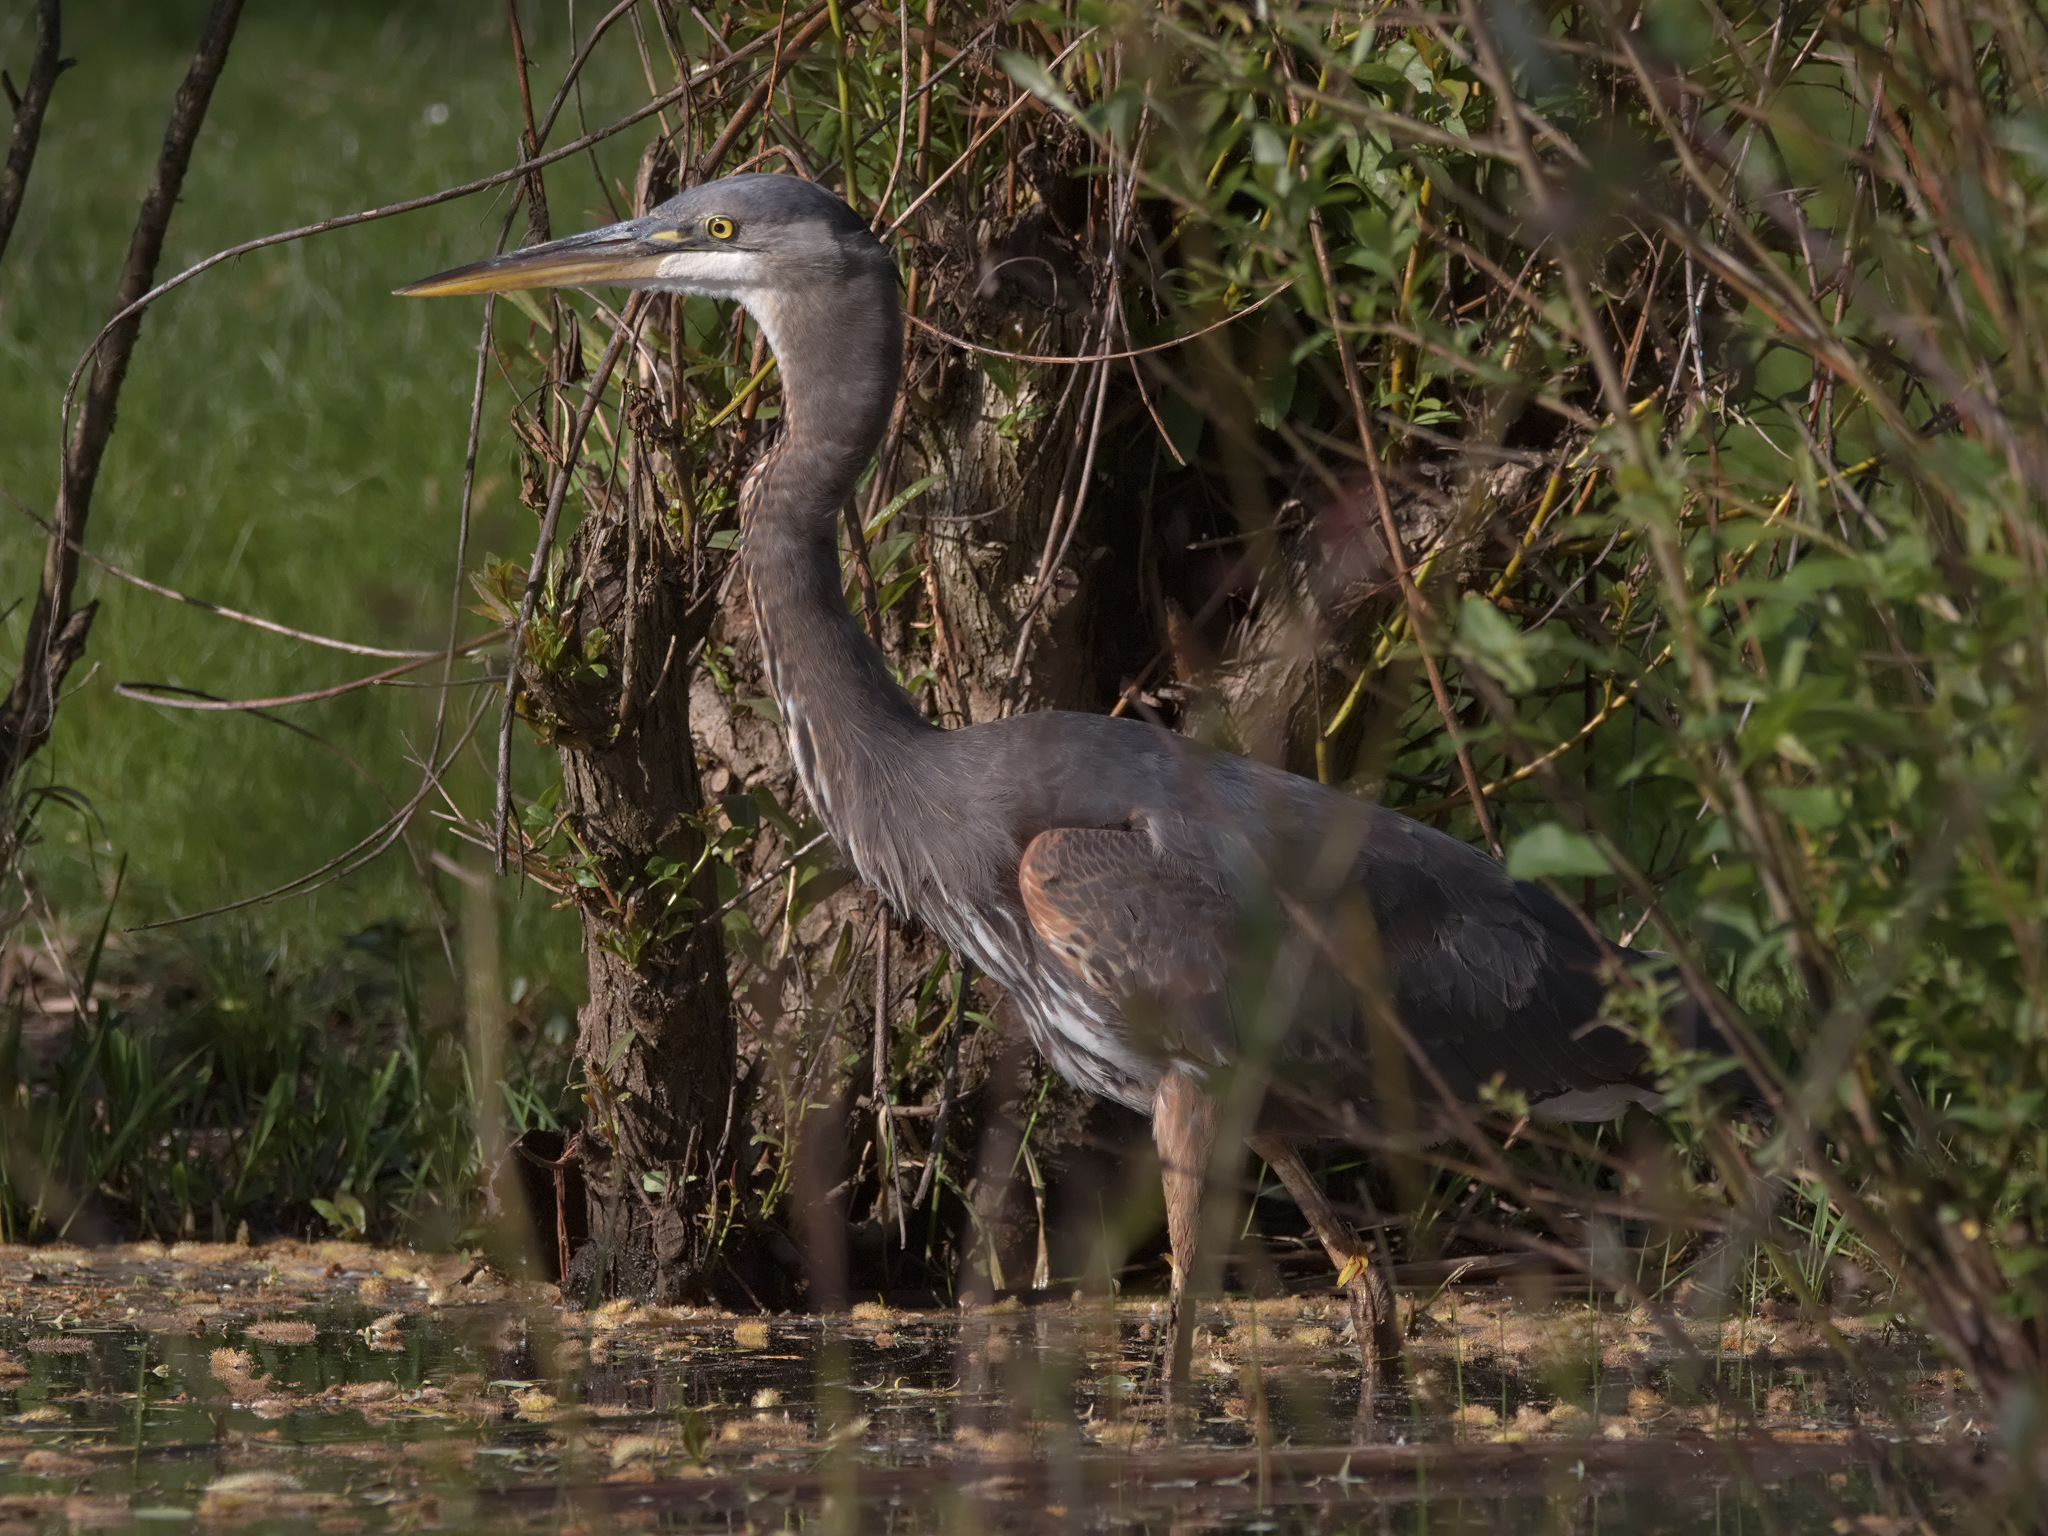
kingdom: Animalia
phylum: Chordata
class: Aves
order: Pelecaniformes
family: Ardeidae
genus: Ardea
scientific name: Ardea herodias
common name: Great blue heron
